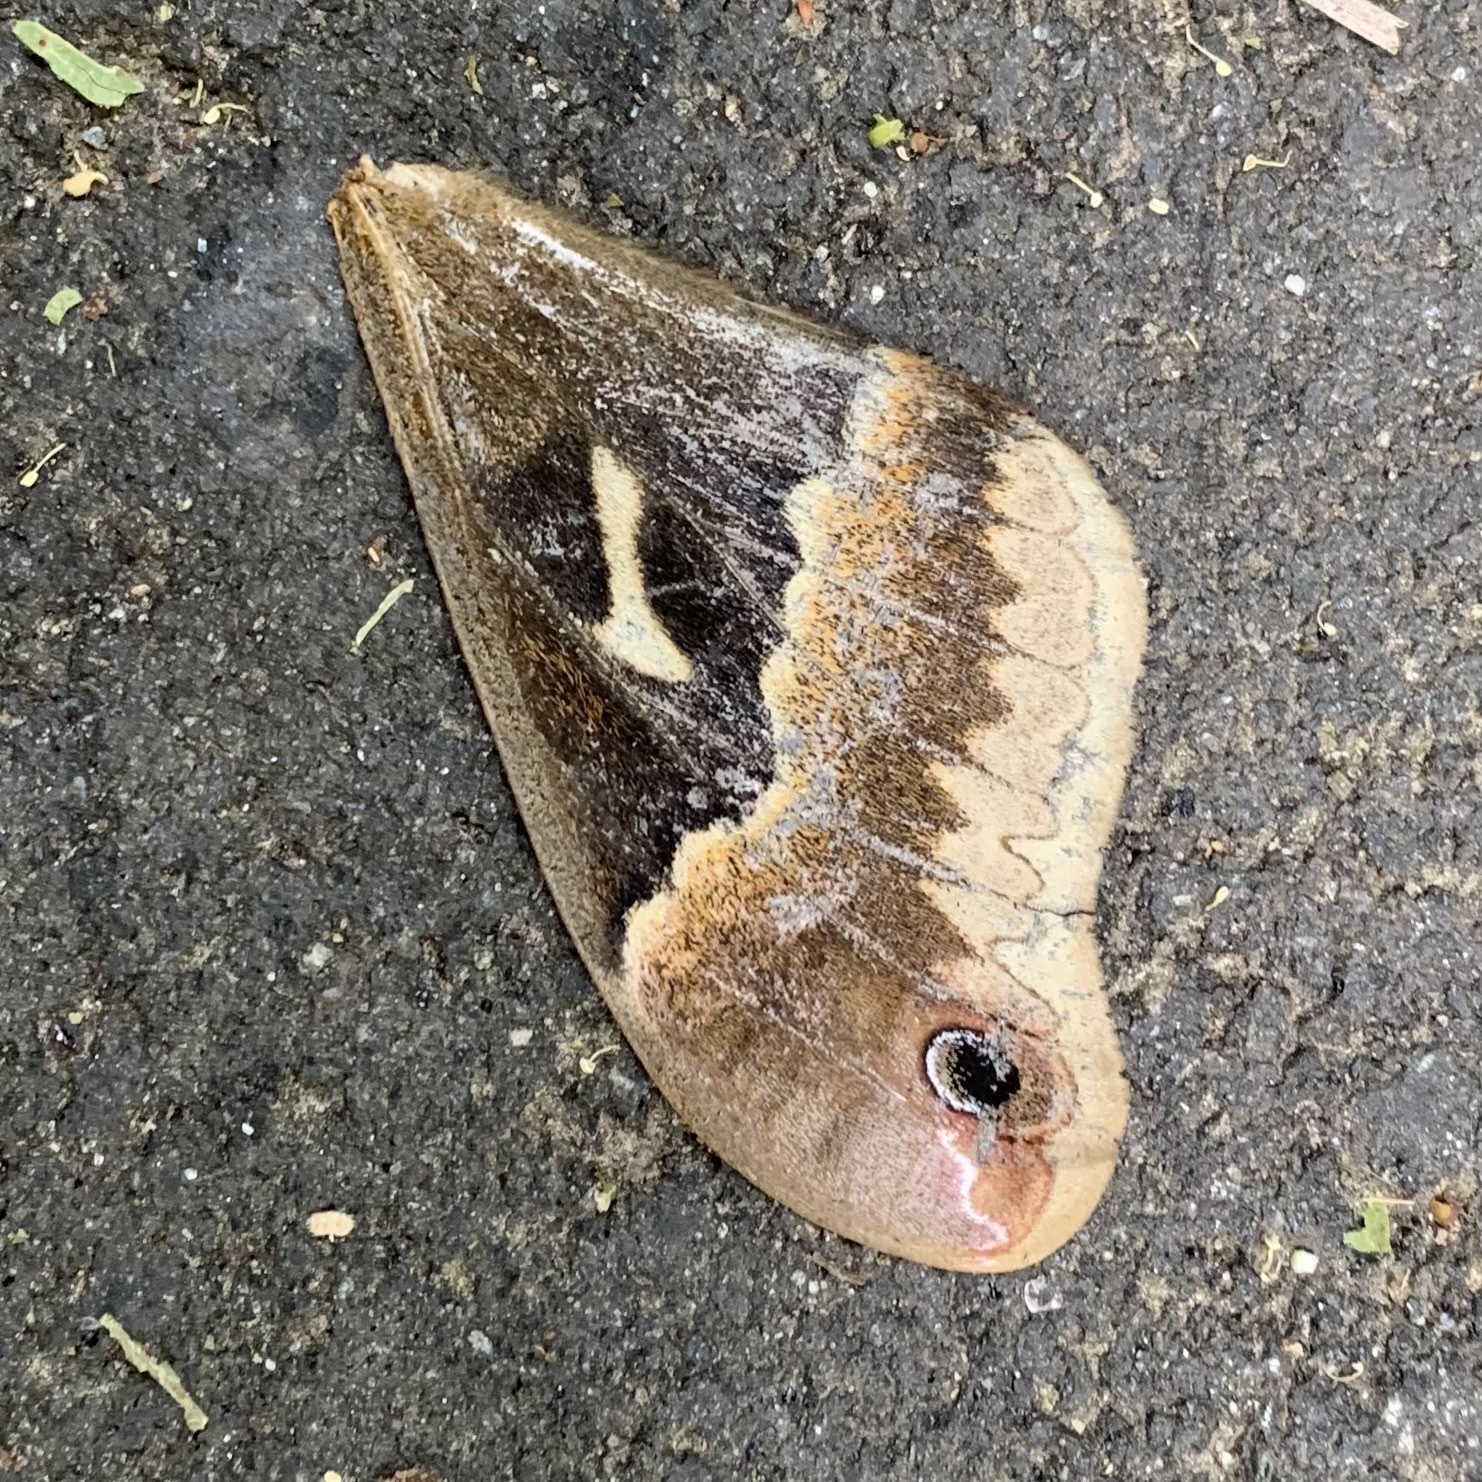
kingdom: Animalia
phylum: Arthropoda
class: Insecta
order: Lepidoptera
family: Saturniidae
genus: Callosamia
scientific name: Callosamia angulifera
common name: Tulip tree silkmoth
